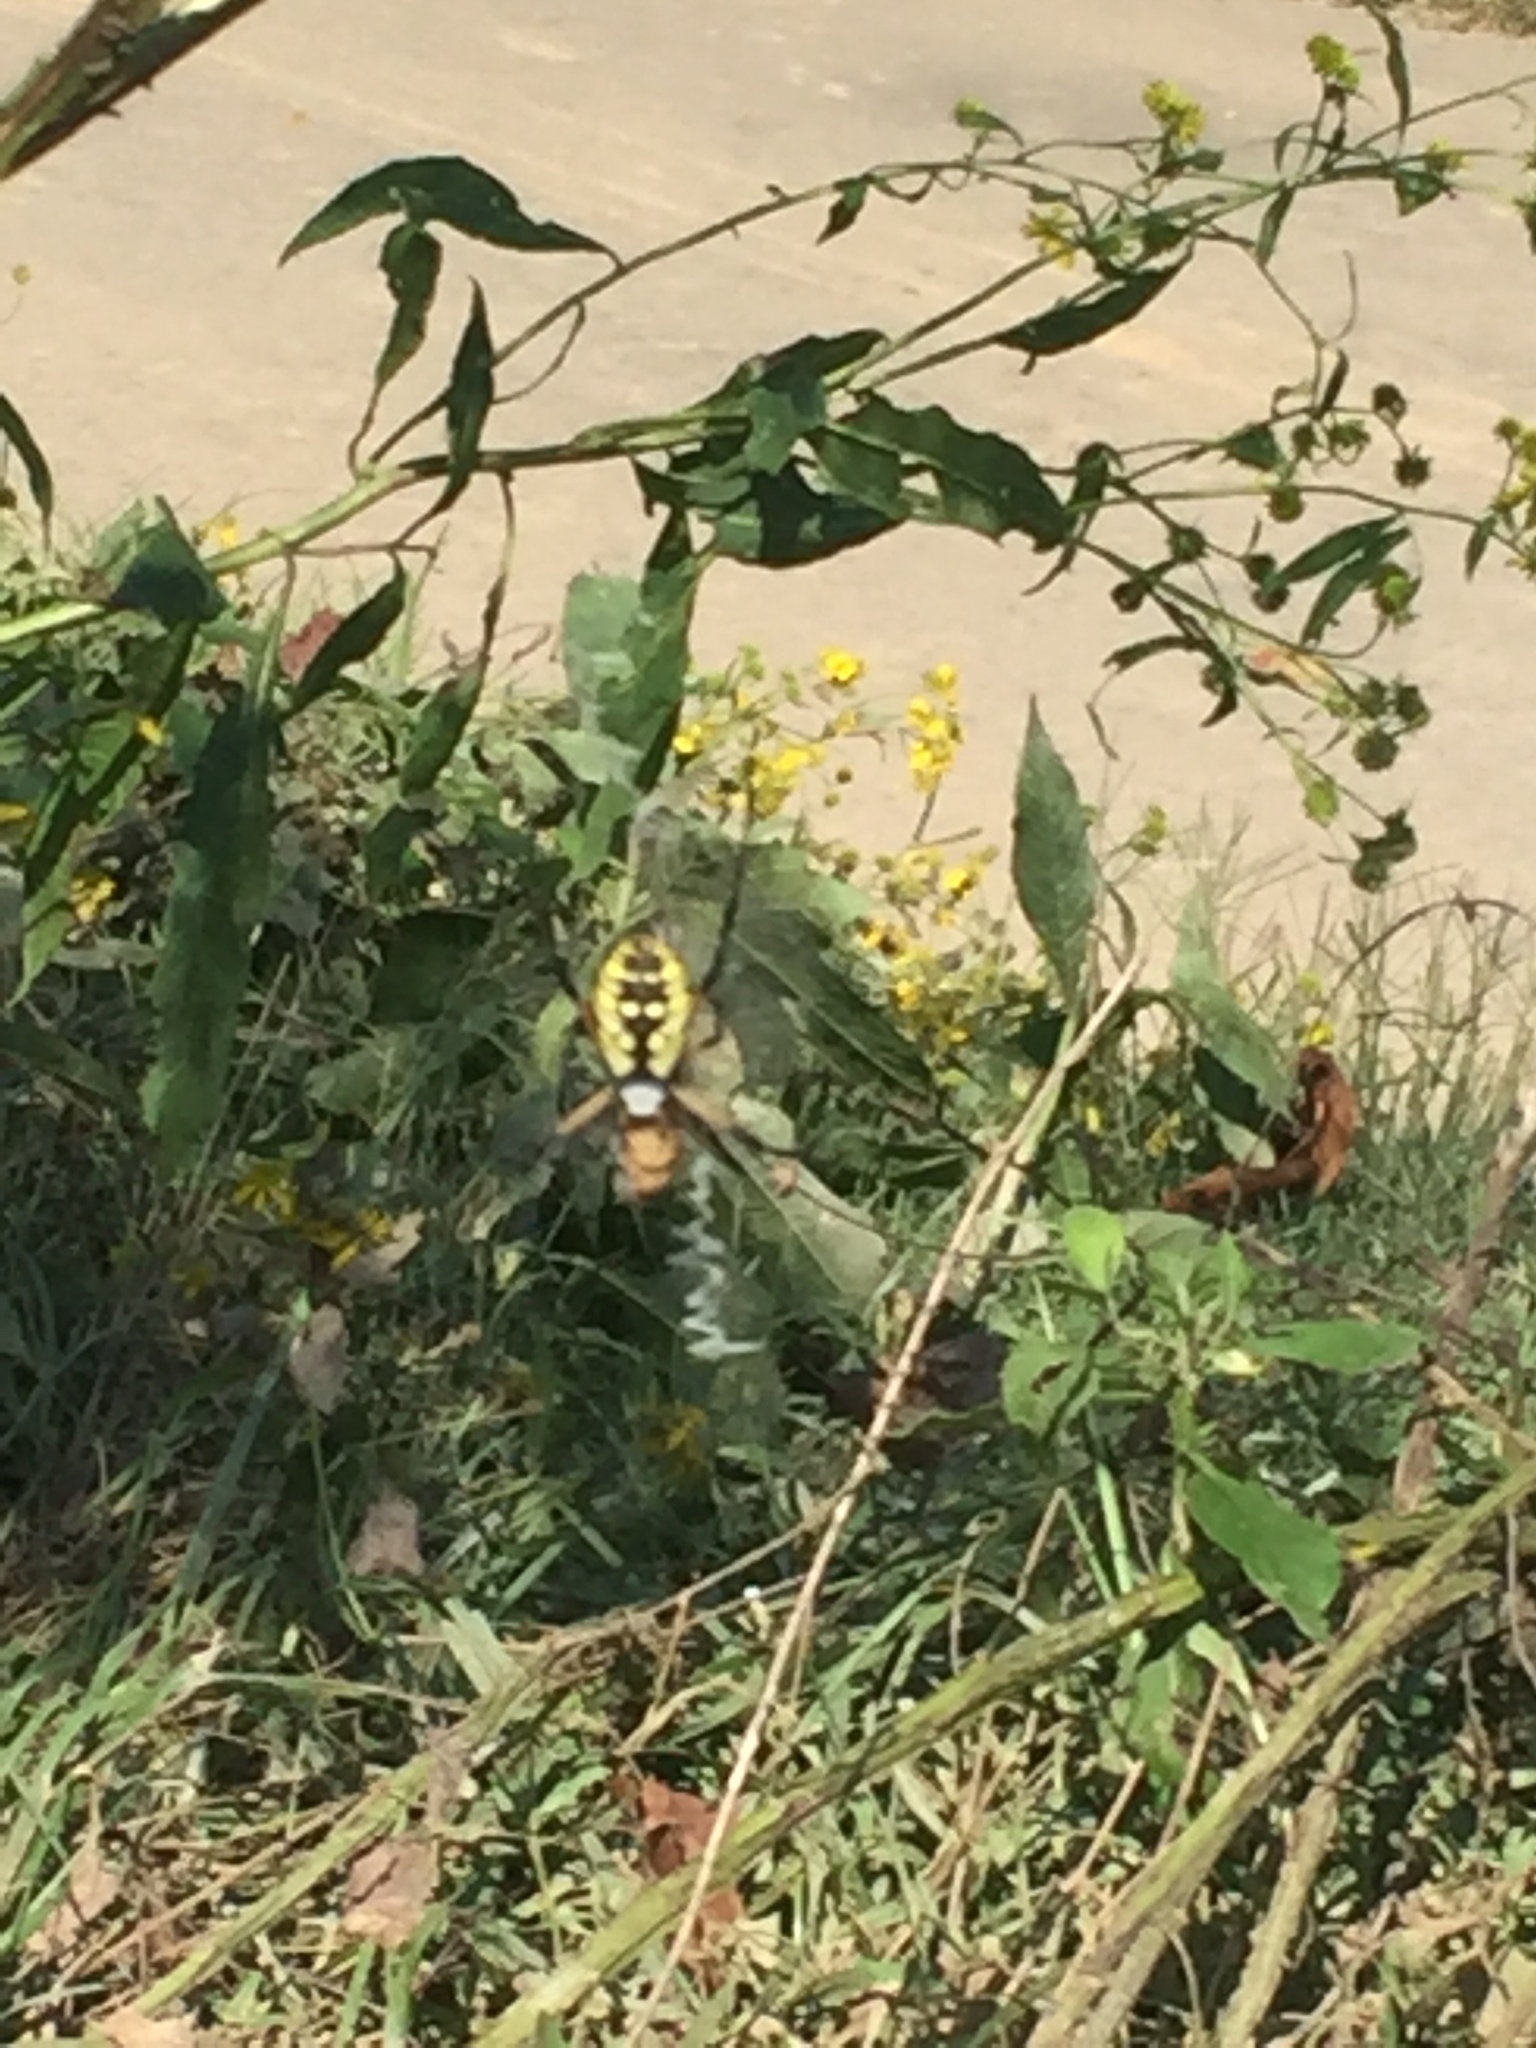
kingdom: Animalia
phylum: Arthropoda
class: Arachnida
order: Araneae
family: Araneidae
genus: Argiope
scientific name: Argiope aurantia
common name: Orb weavers
